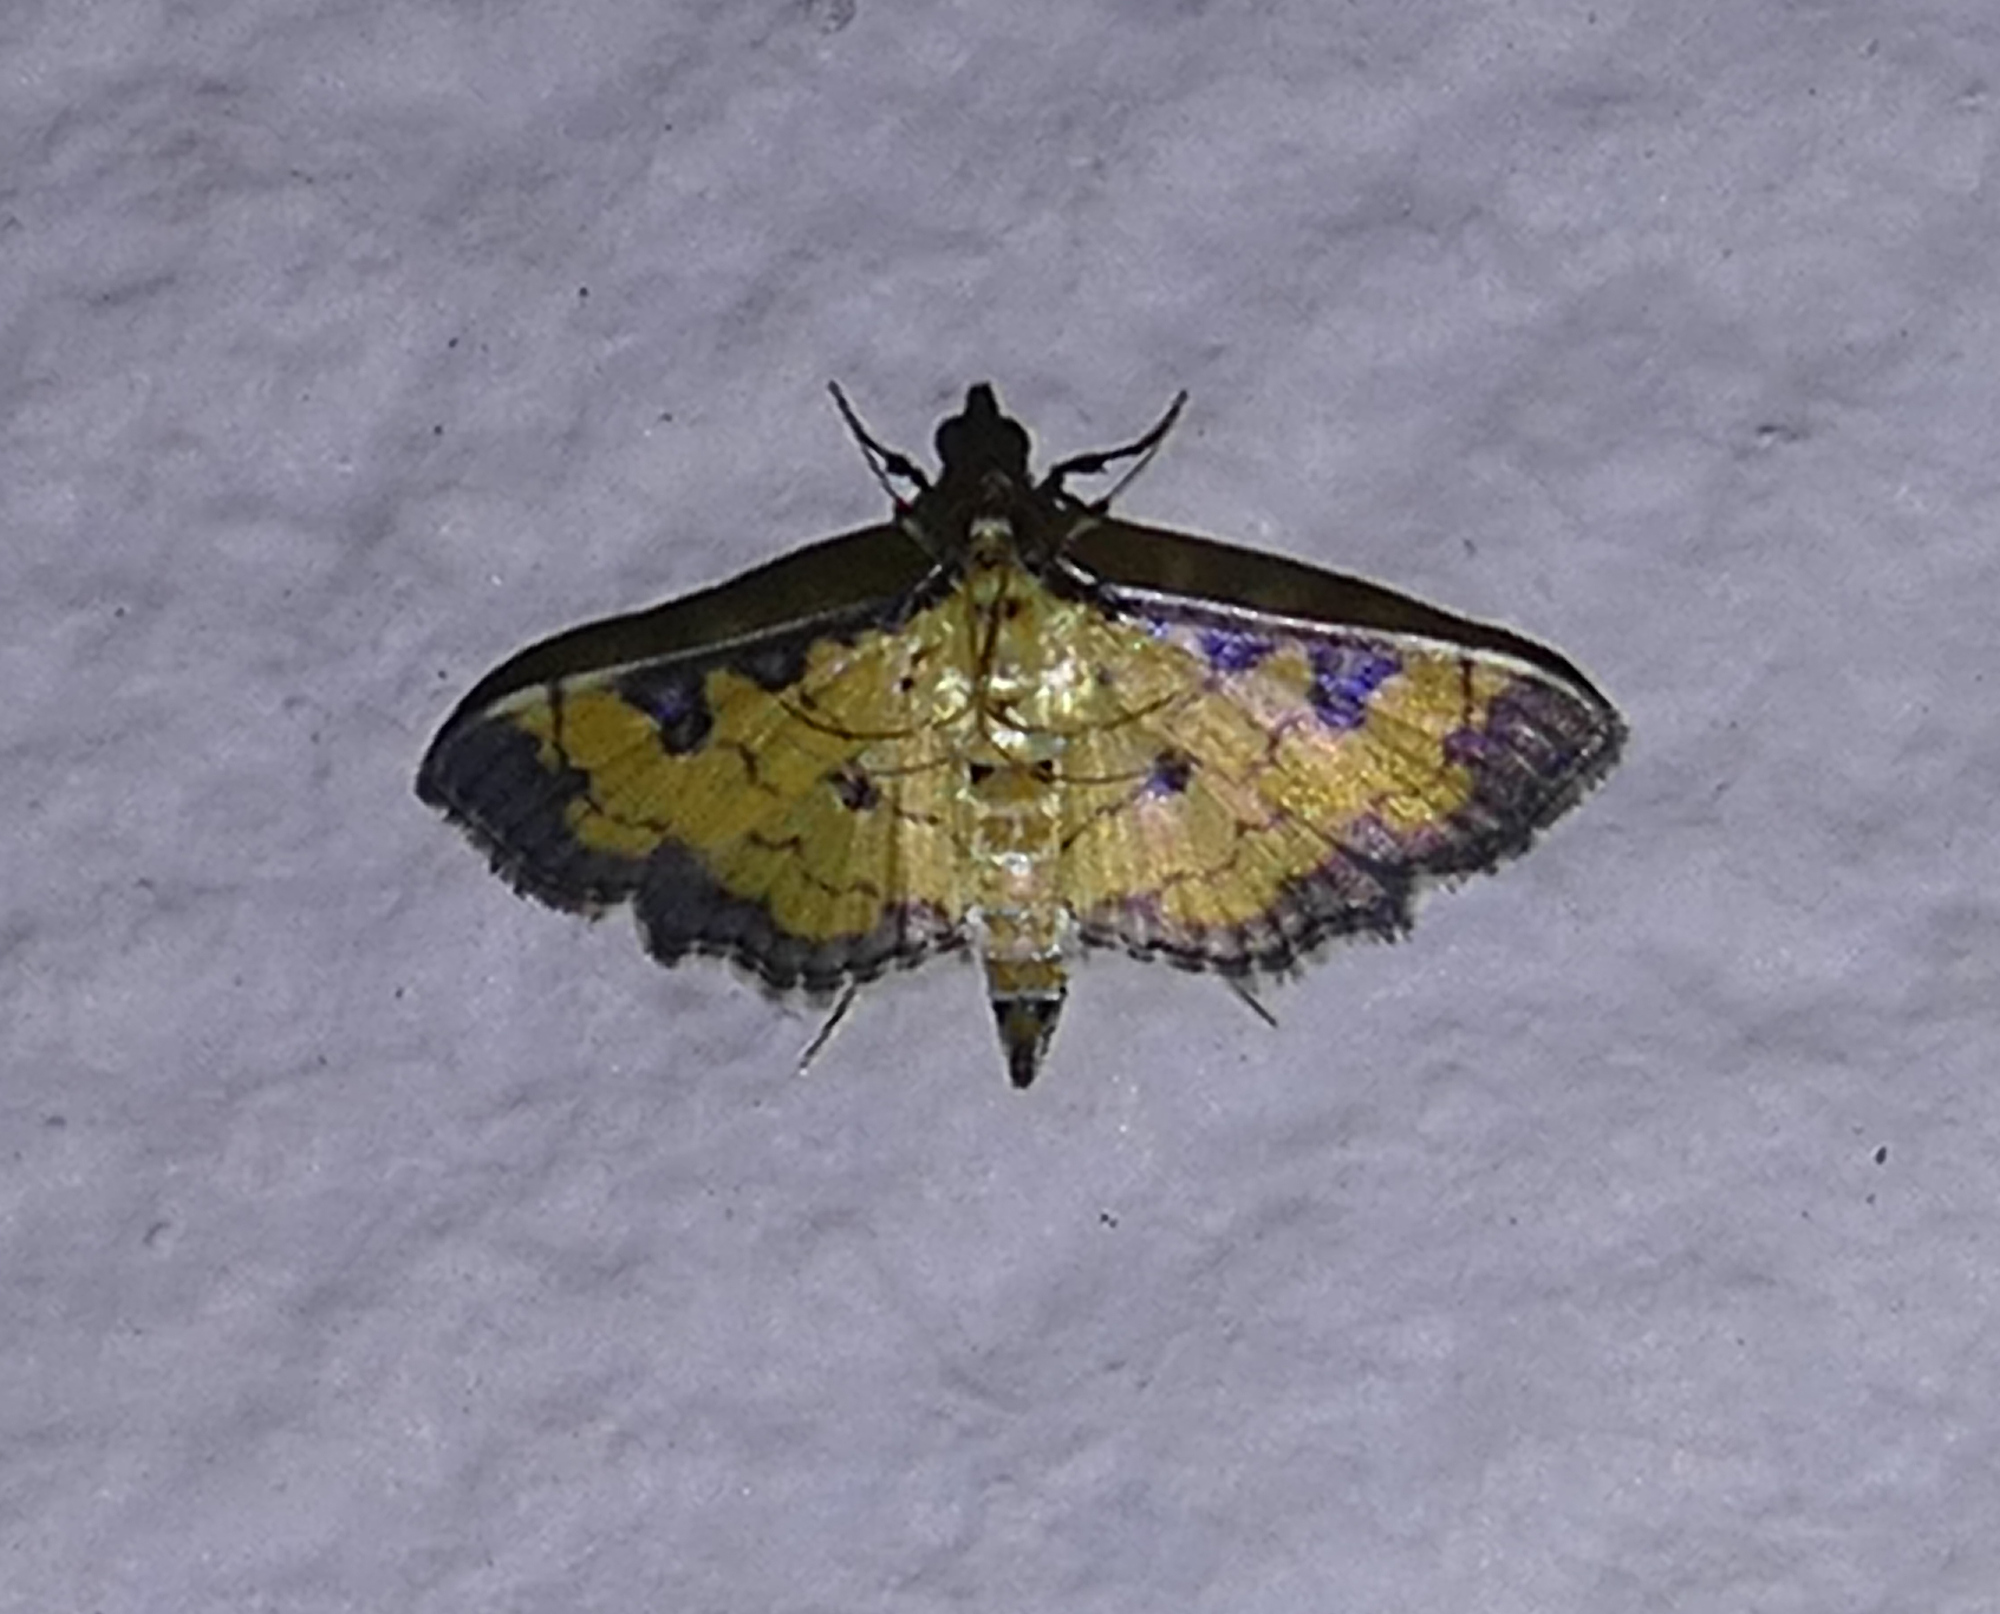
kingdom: Animalia
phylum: Arthropoda
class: Insecta
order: Lepidoptera
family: Crambidae
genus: Ategumia
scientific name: Ategumia ebulealis
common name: Moth
